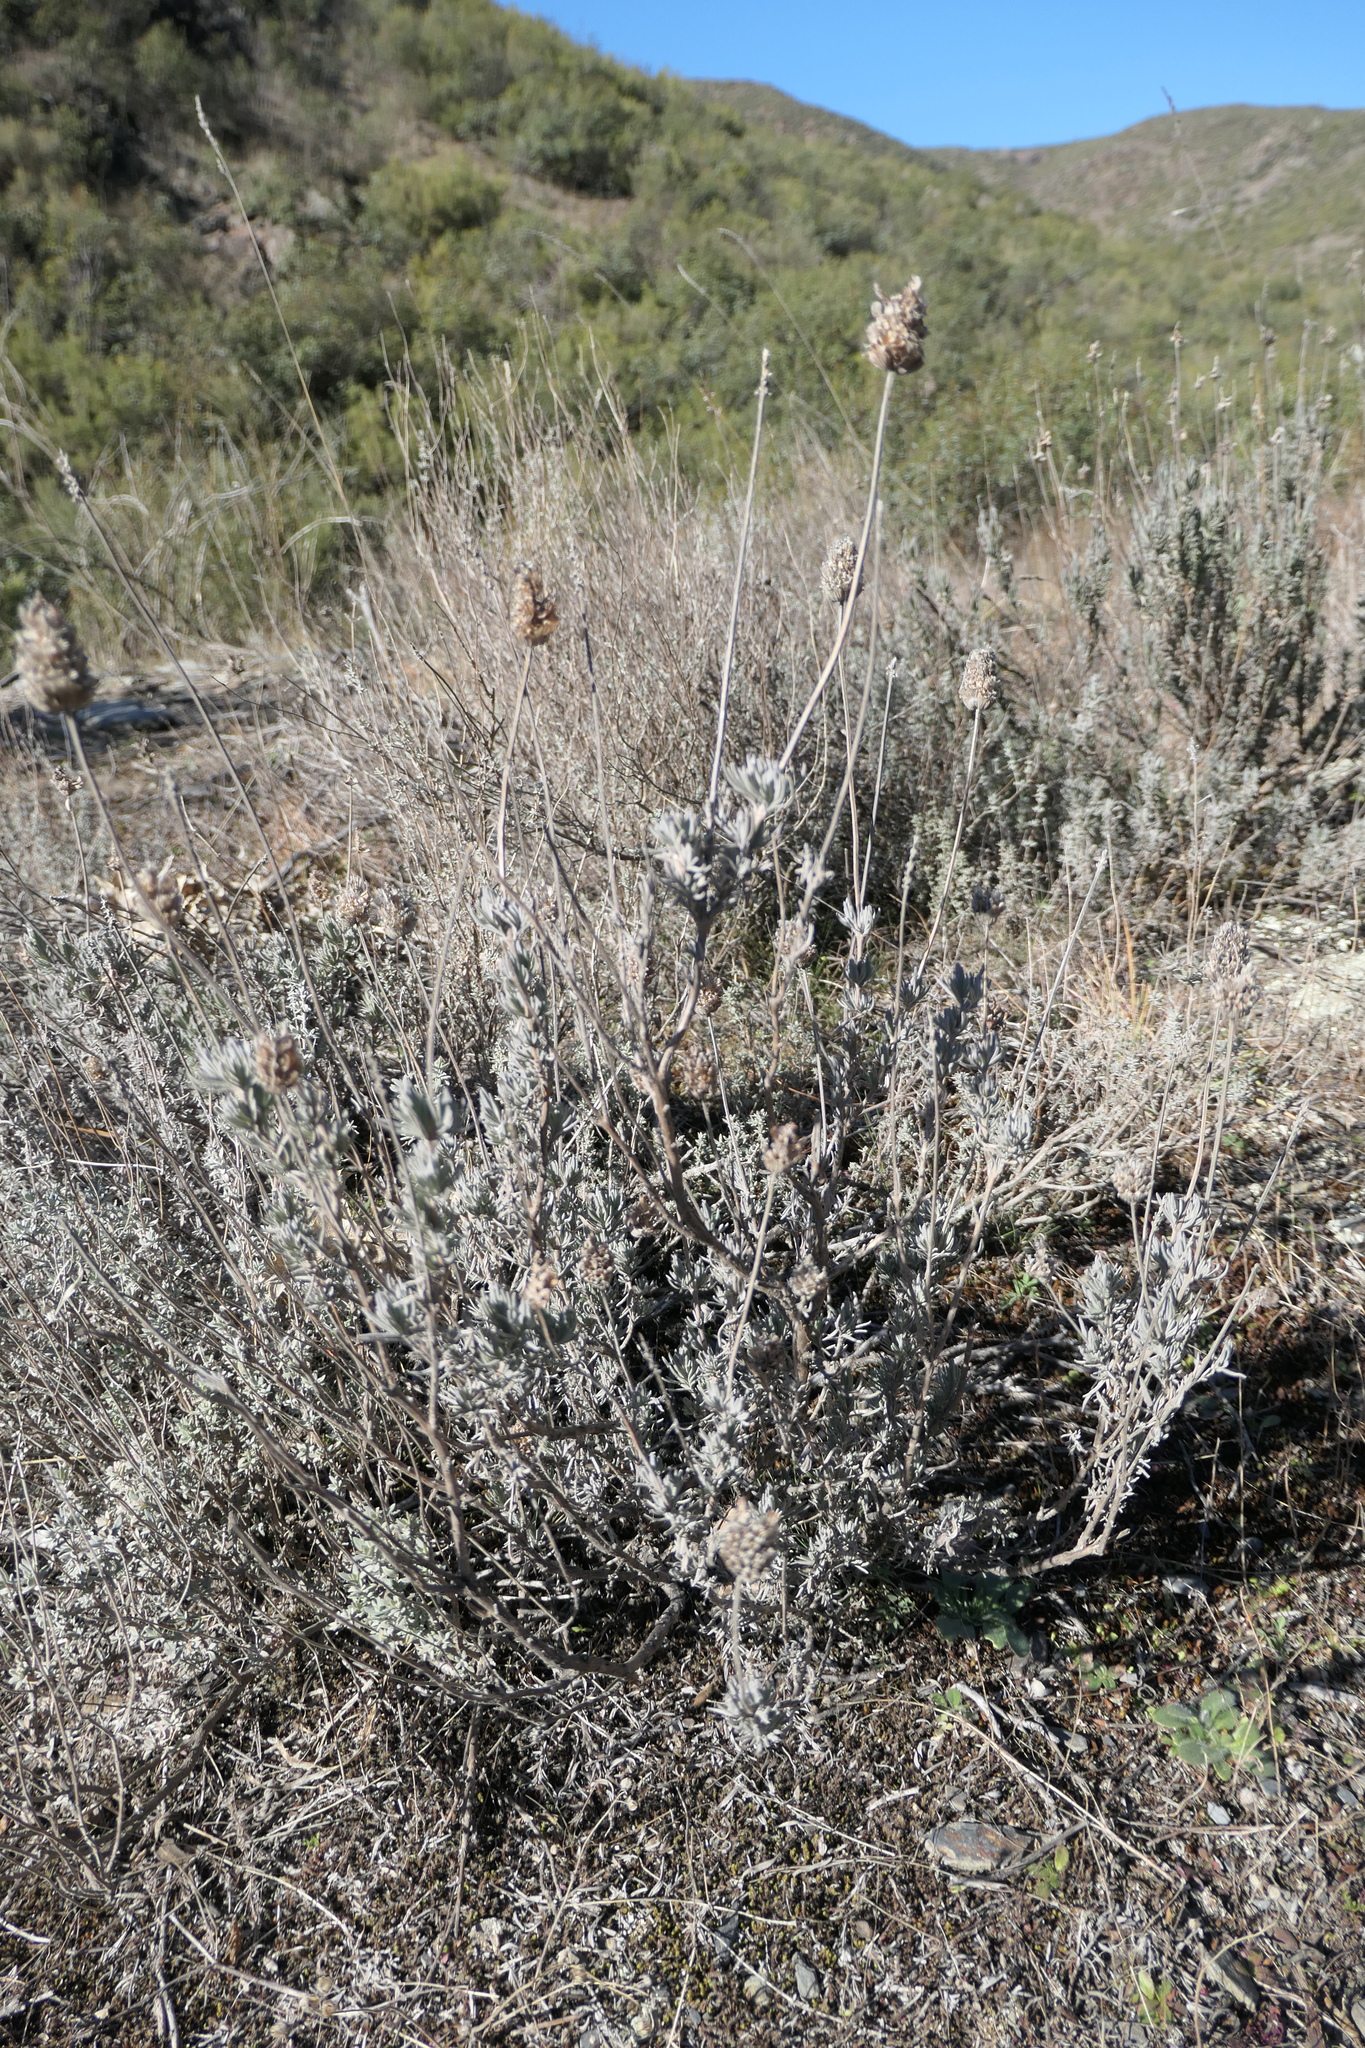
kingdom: Plantae
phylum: Tracheophyta
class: Magnoliopsida
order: Lamiales
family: Lamiaceae
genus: Lavandula
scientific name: Lavandula pedunculata
